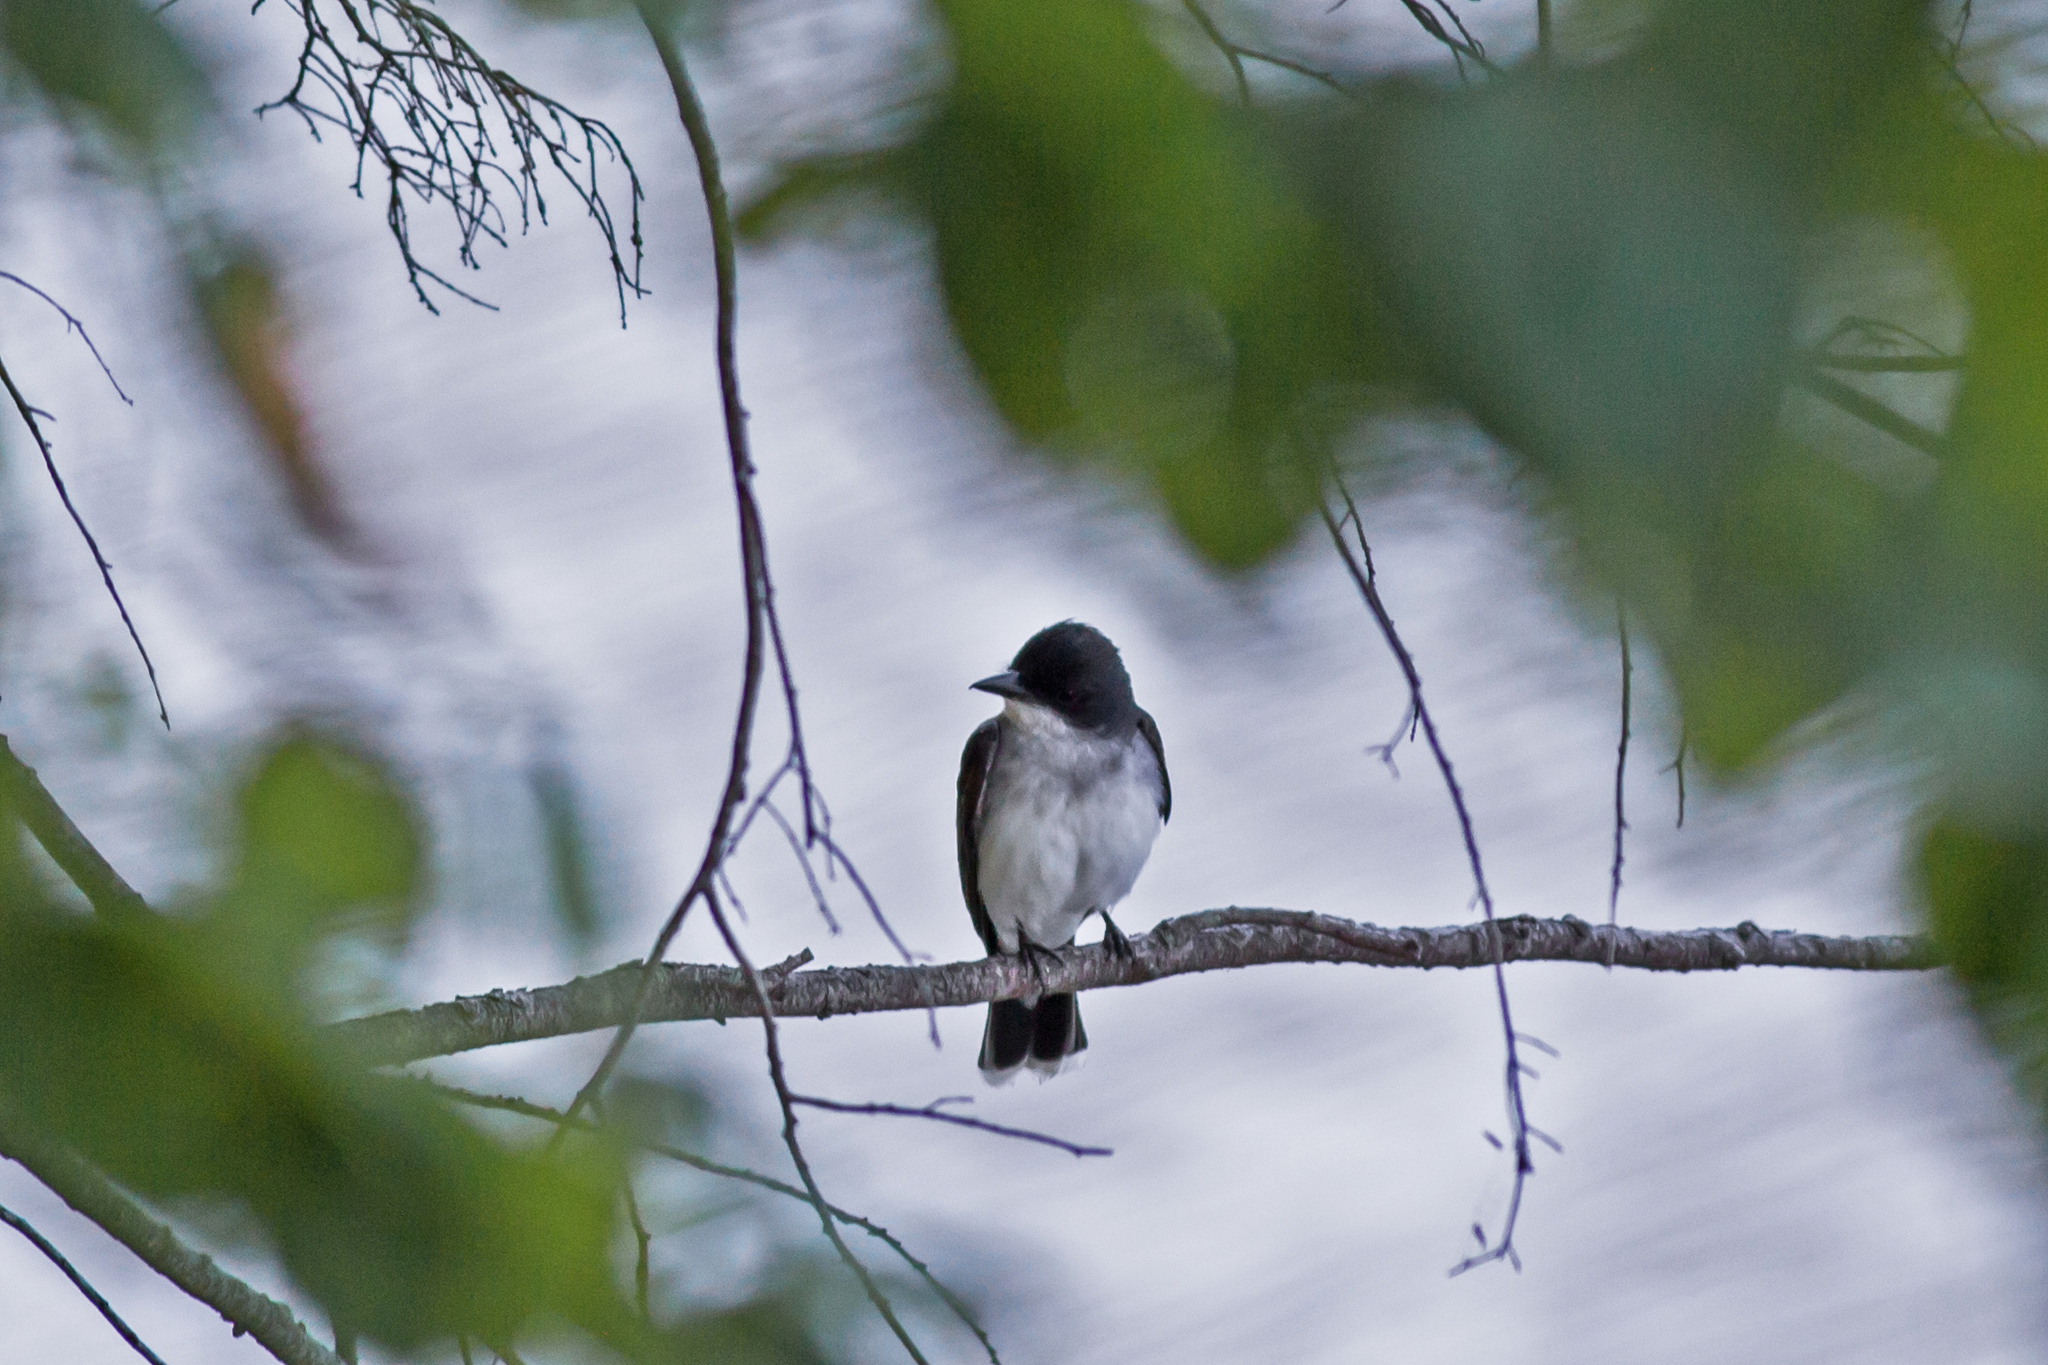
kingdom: Animalia
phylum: Chordata
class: Aves
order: Passeriformes
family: Tyrannidae
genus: Tyrannus
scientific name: Tyrannus tyrannus
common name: Eastern kingbird
